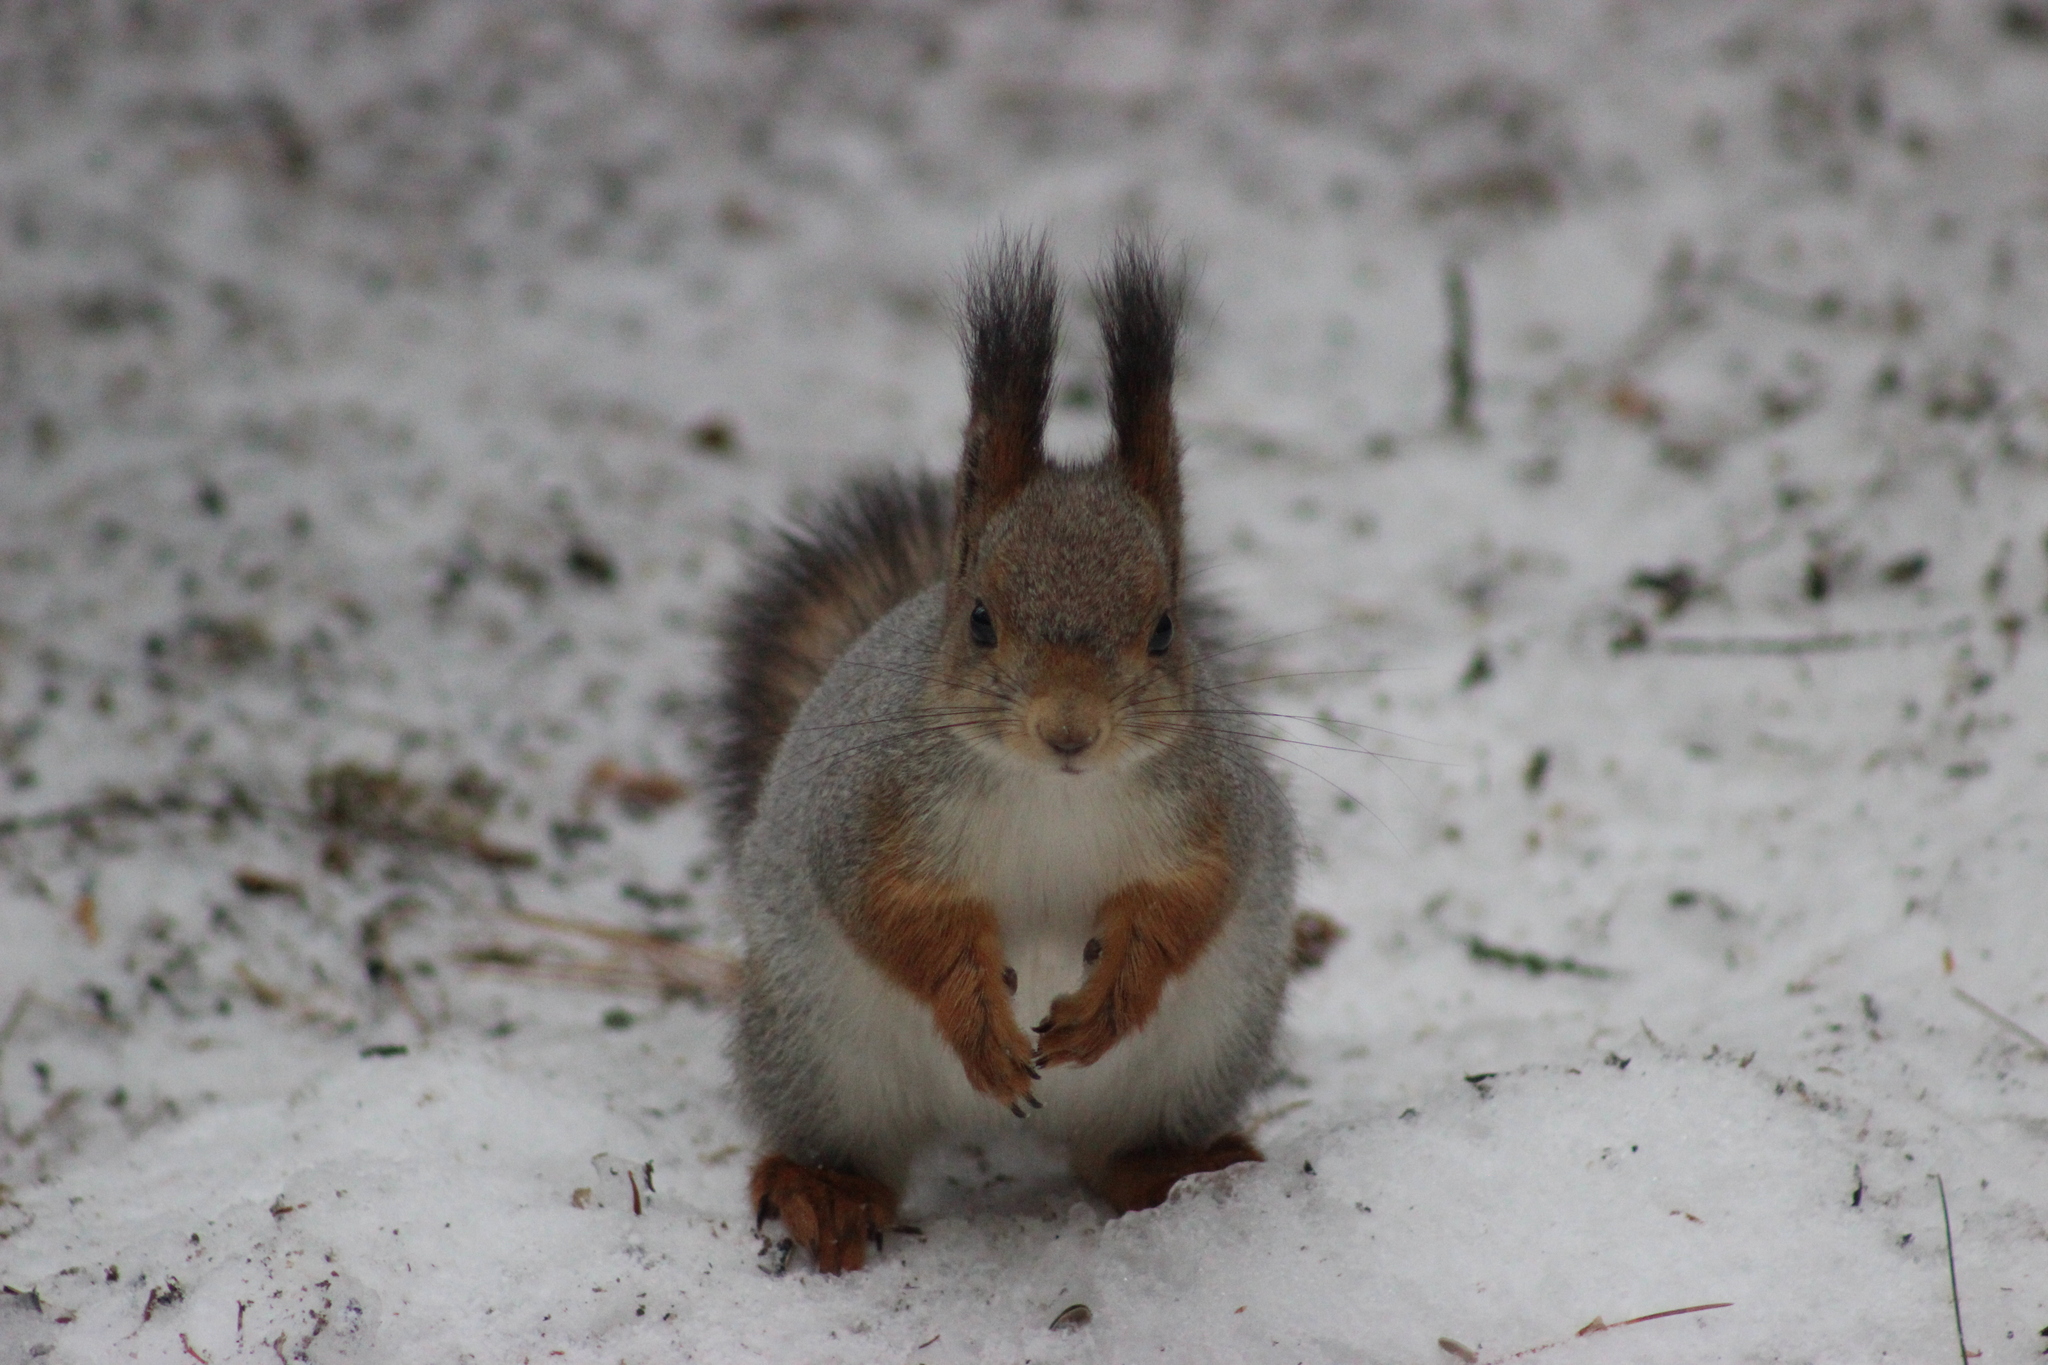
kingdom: Animalia
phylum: Chordata
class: Mammalia
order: Rodentia
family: Sciuridae
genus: Sciurus
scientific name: Sciurus vulgaris
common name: Eurasian red squirrel
